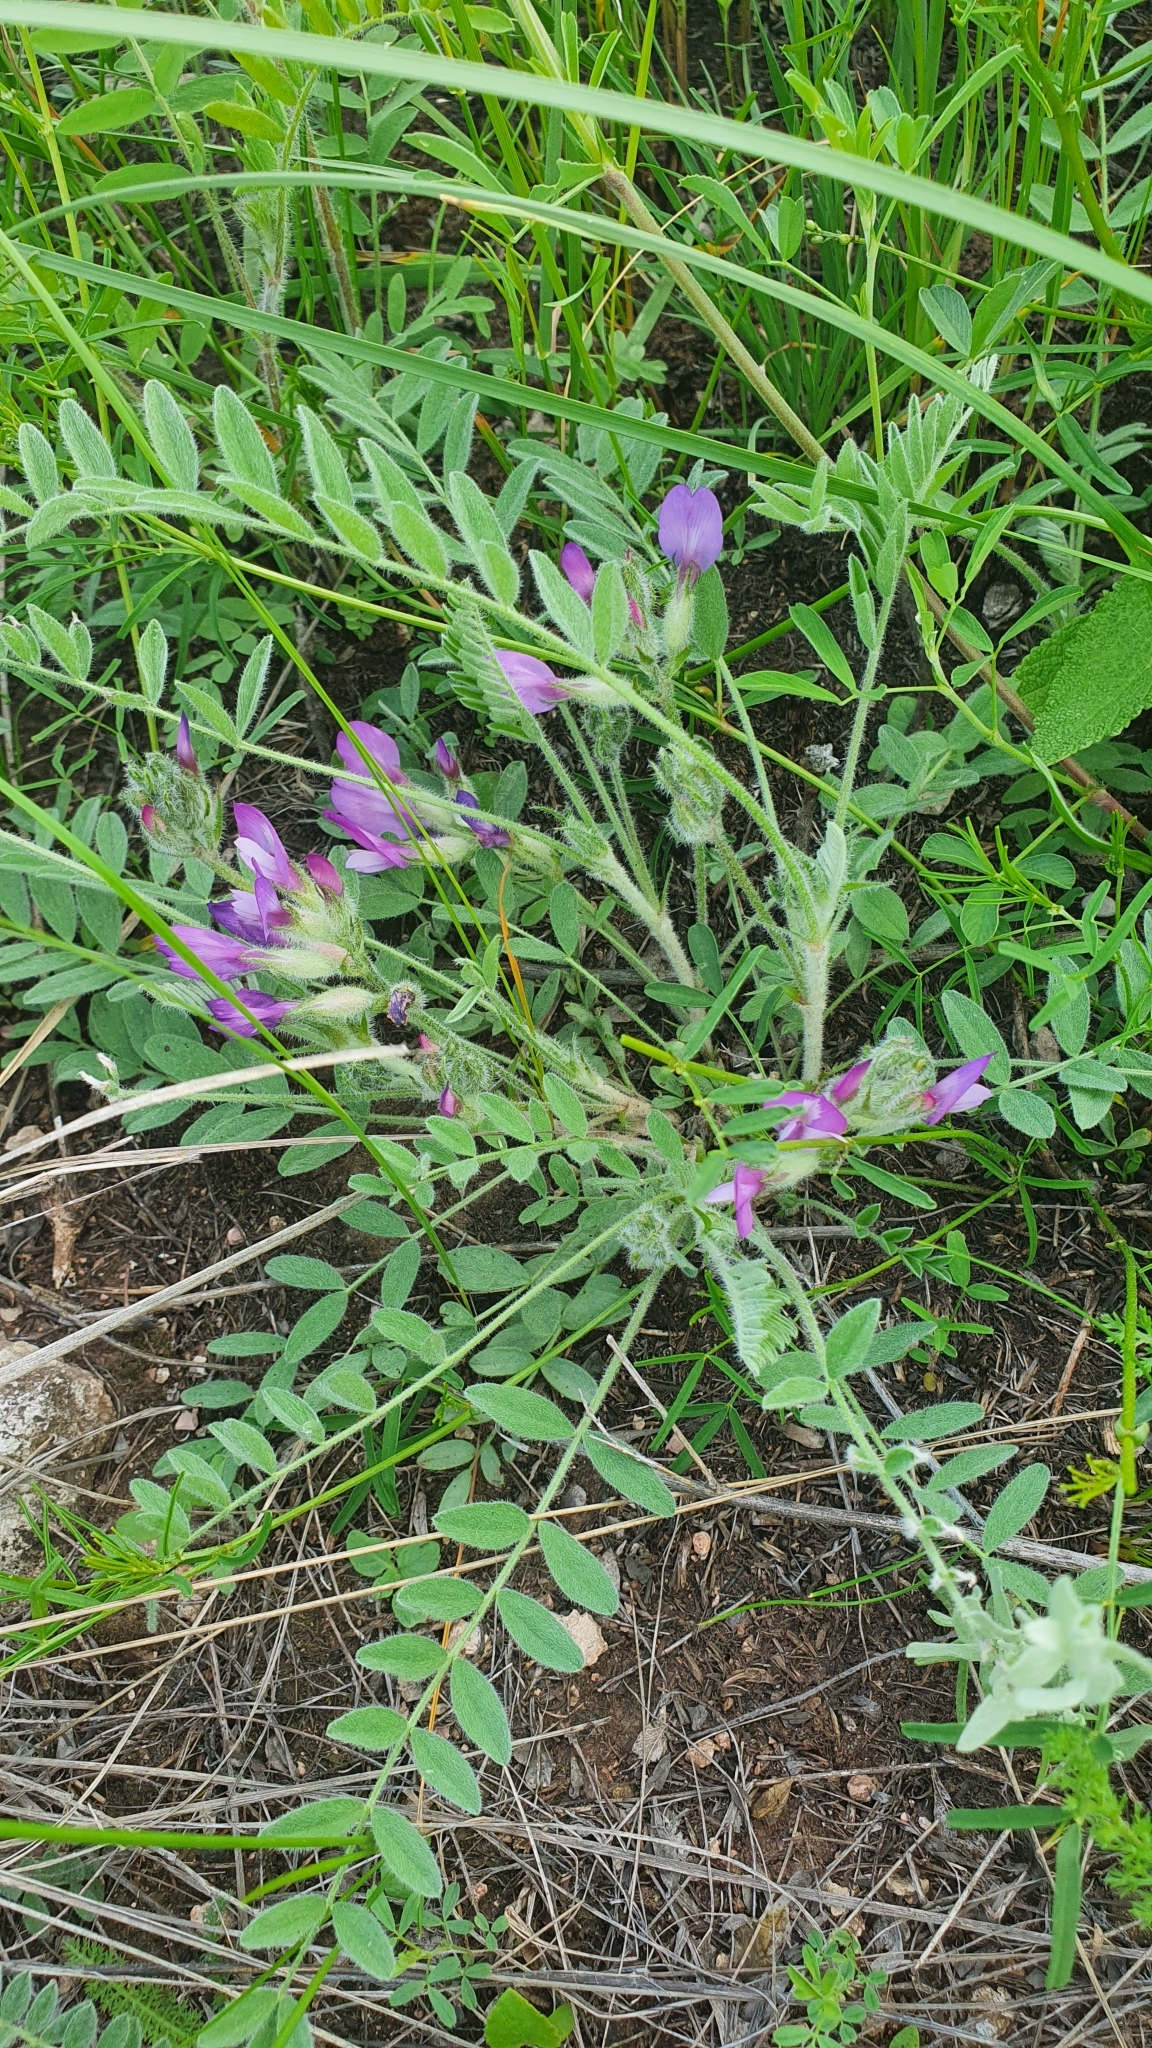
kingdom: Plantae
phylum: Tracheophyta
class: Magnoliopsida
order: Fabales
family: Fabaceae
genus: Astragalus
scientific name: Astragalus rupifragus
